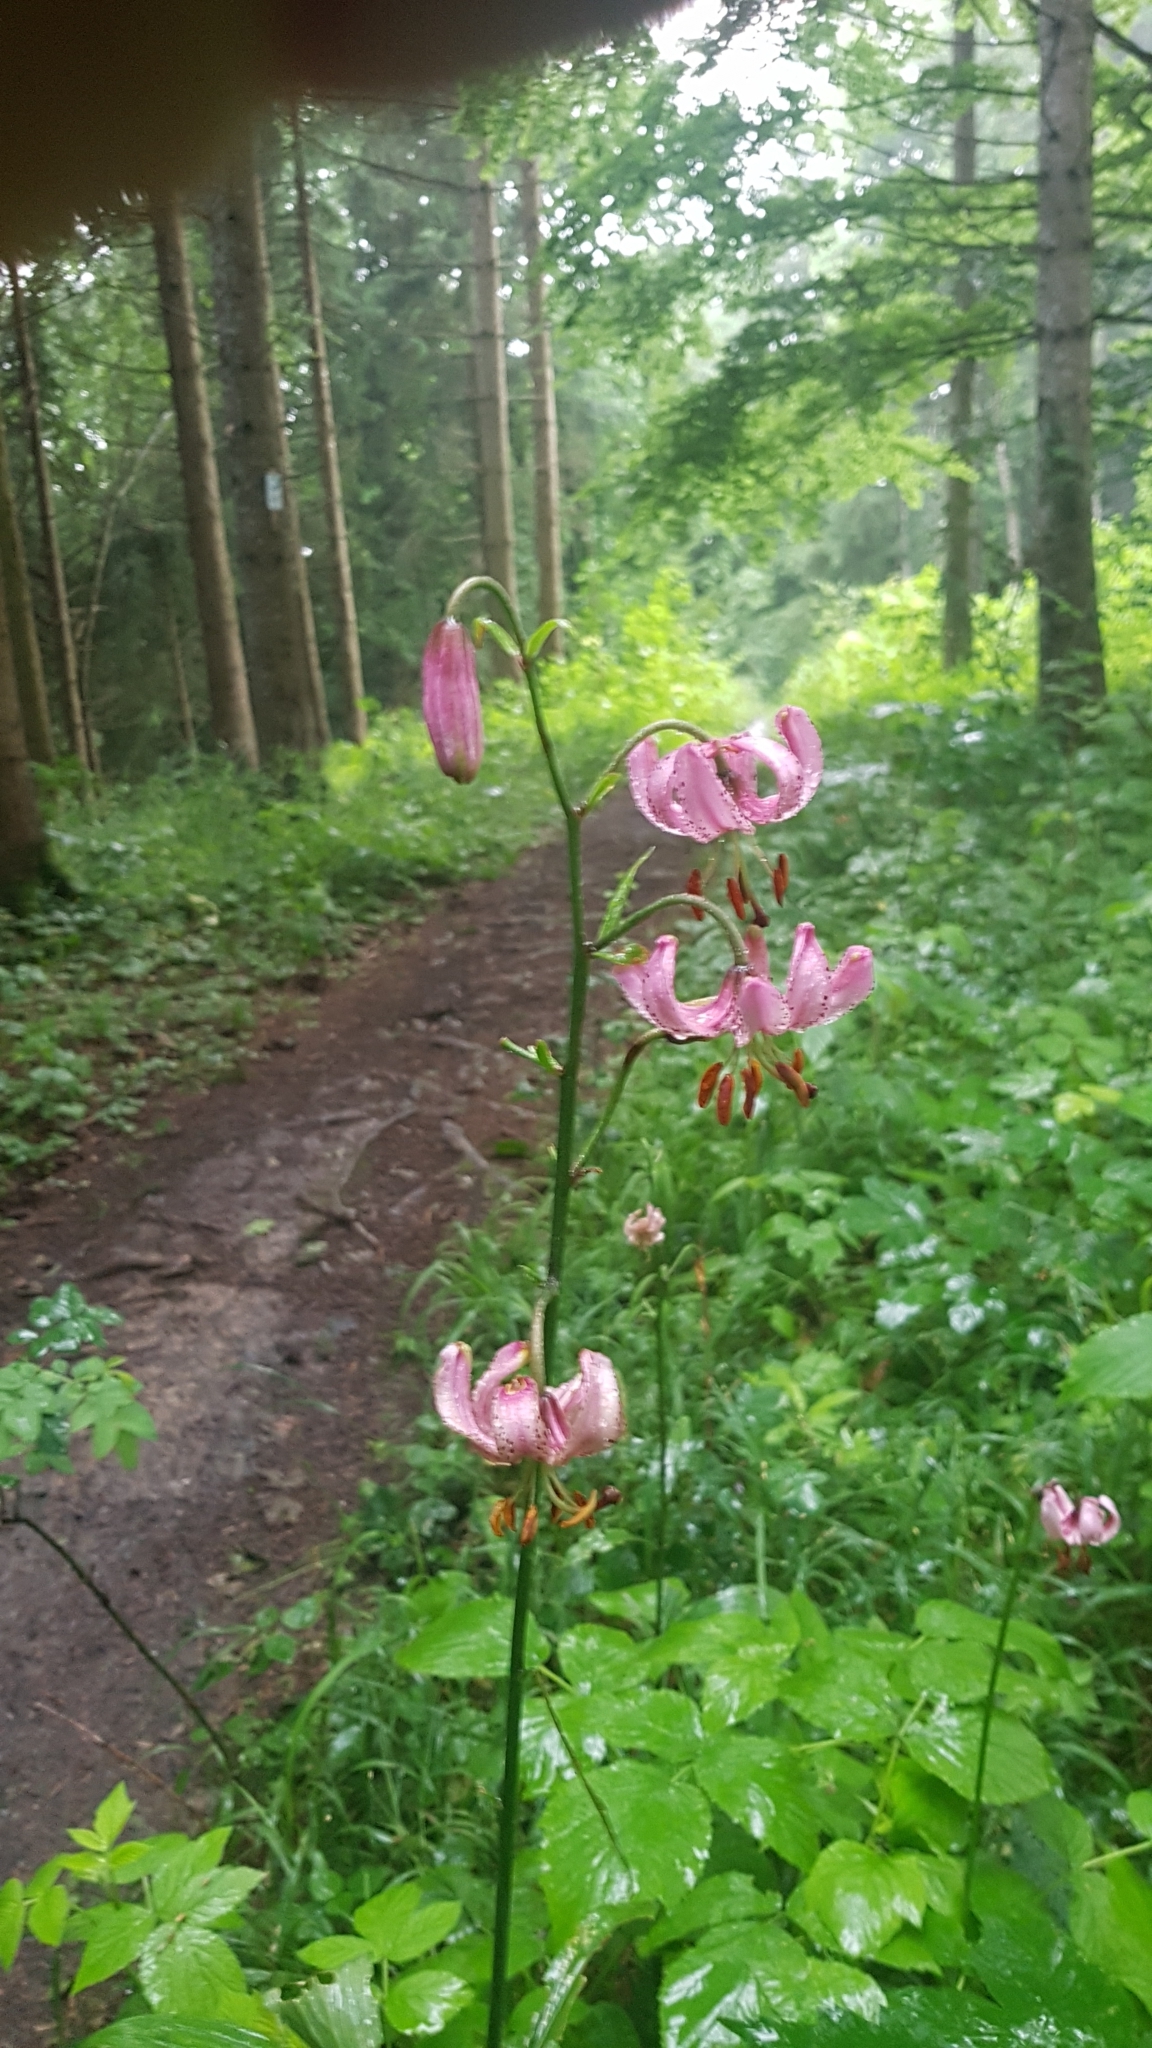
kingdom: Plantae
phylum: Tracheophyta
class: Liliopsida
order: Liliales
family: Liliaceae
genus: Lilium
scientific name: Lilium martagon
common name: Martagon lily
